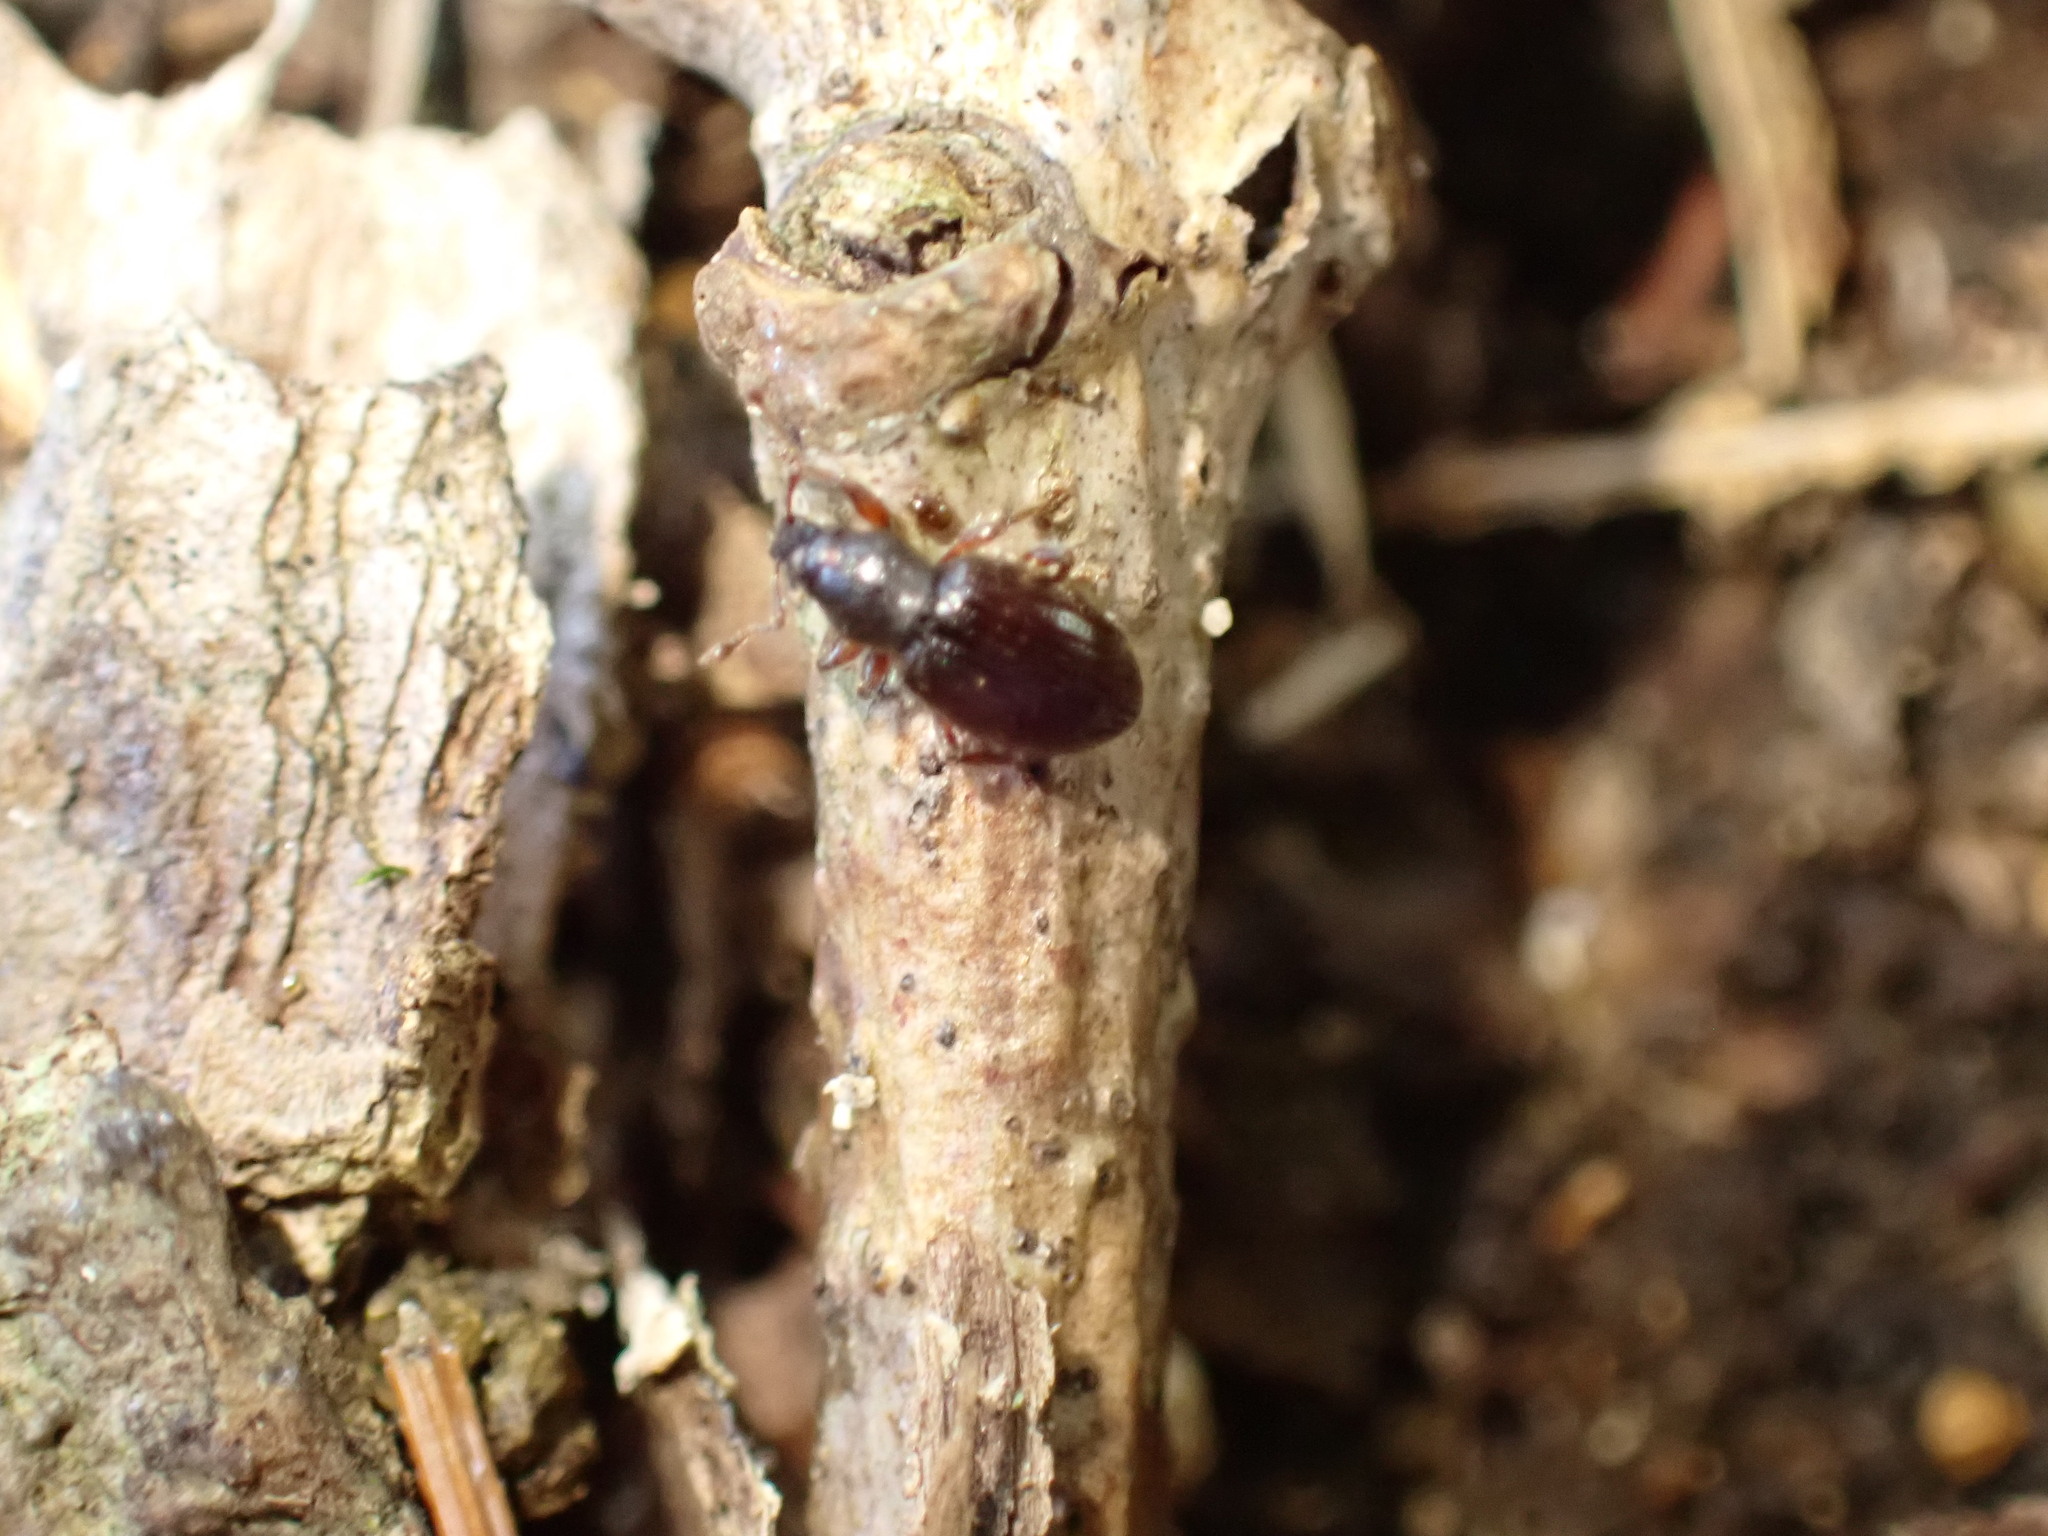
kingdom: Animalia
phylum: Arthropoda
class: Insecta
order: Coleoptera
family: Curculionidae
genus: Exomias
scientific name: Exomias pellucidus
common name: Hairy spider weevil
